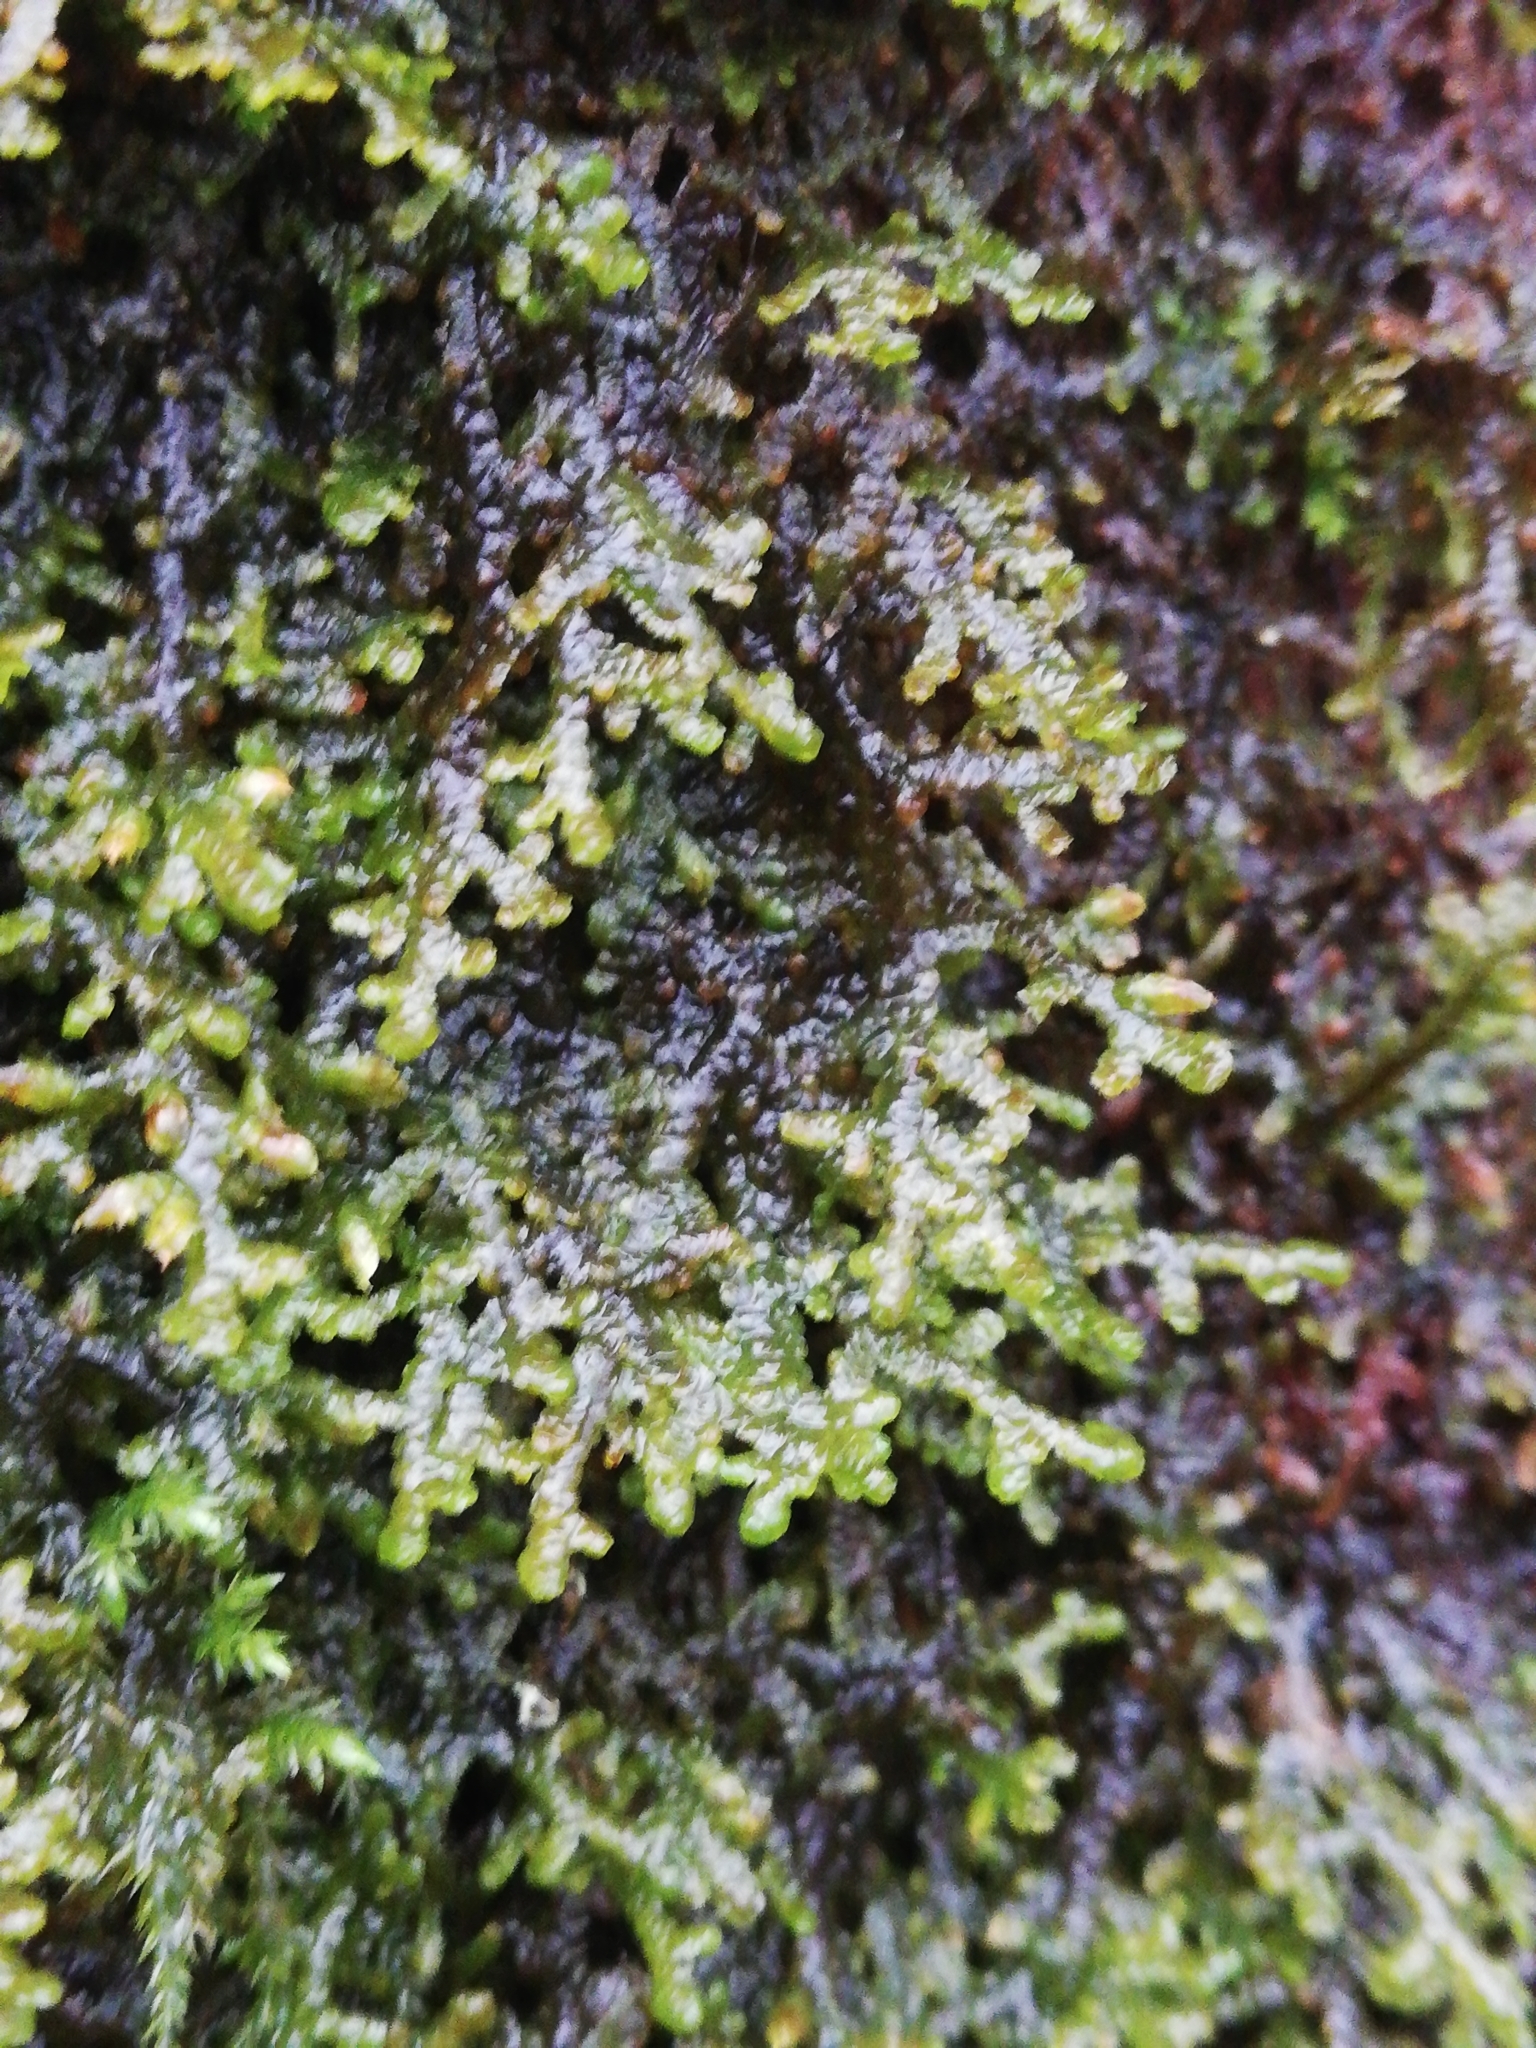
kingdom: Plantae
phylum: Marchantiophyta
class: Jungermanniopsida
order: Porellales
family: Porellaceae
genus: Porella
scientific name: Porella platyphylla
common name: Wall scalewort
